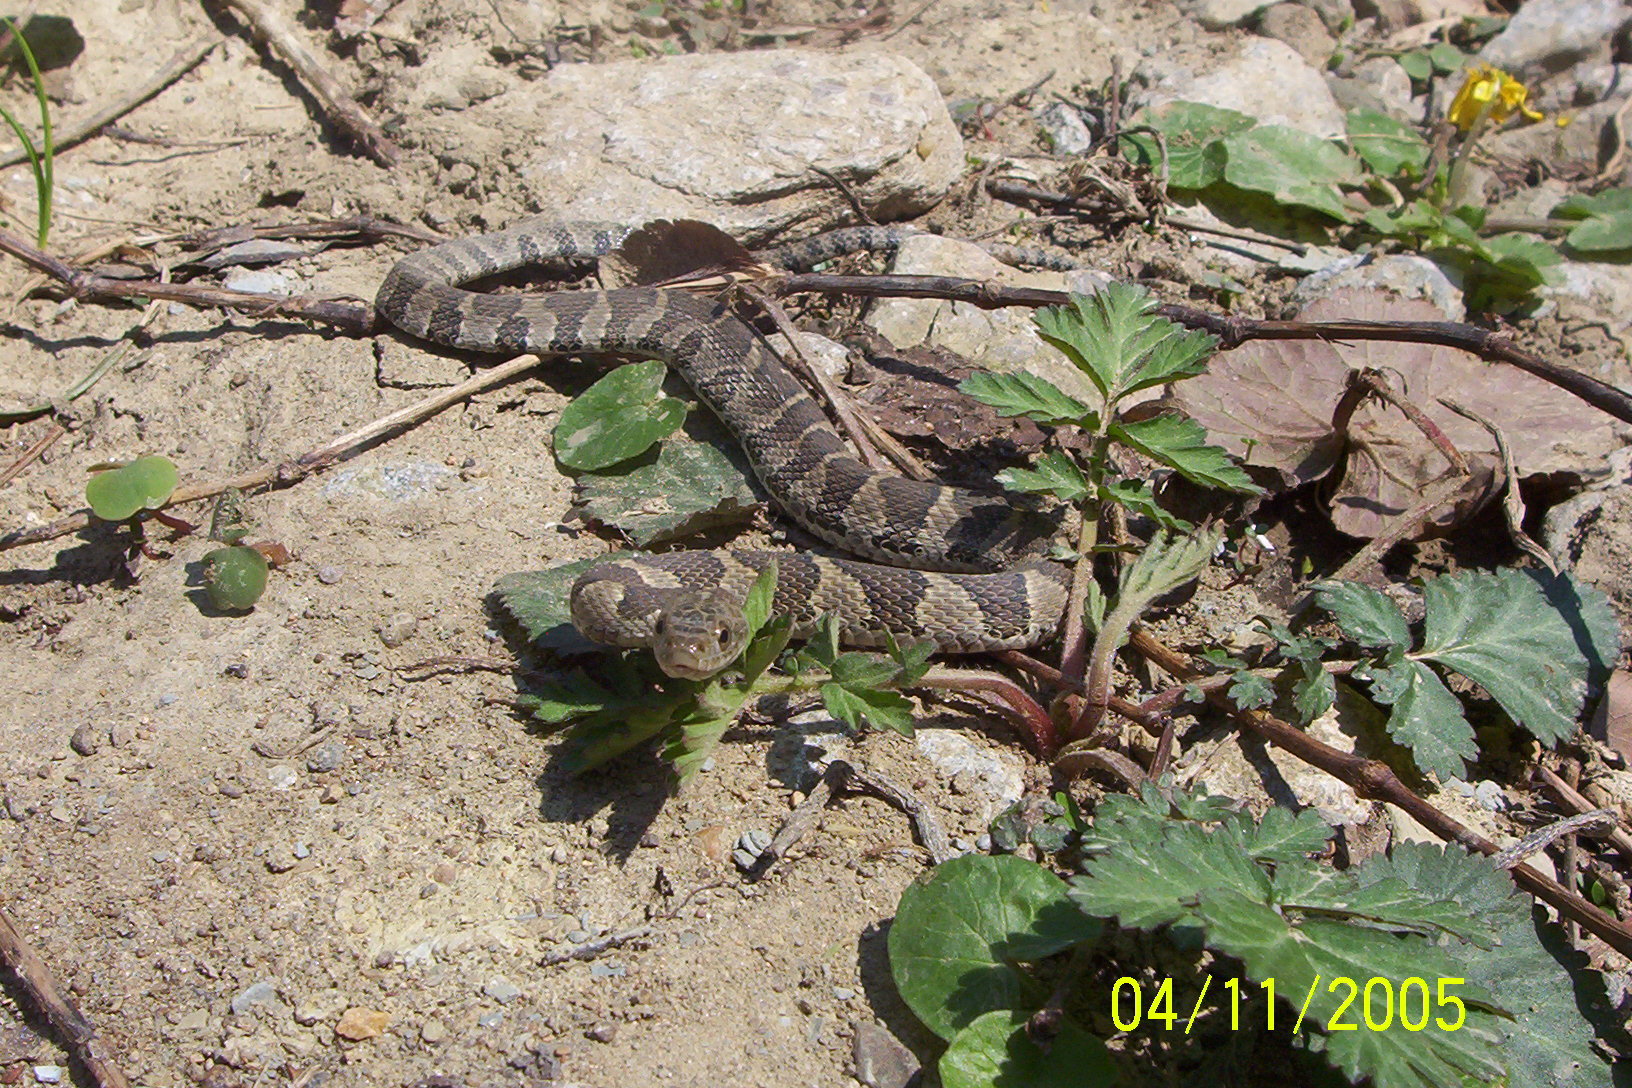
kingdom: Animalia
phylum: Chordata
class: Squamata
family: Colubridae
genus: Nerodia
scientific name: Nerodia sipedon
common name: Northern water snake
